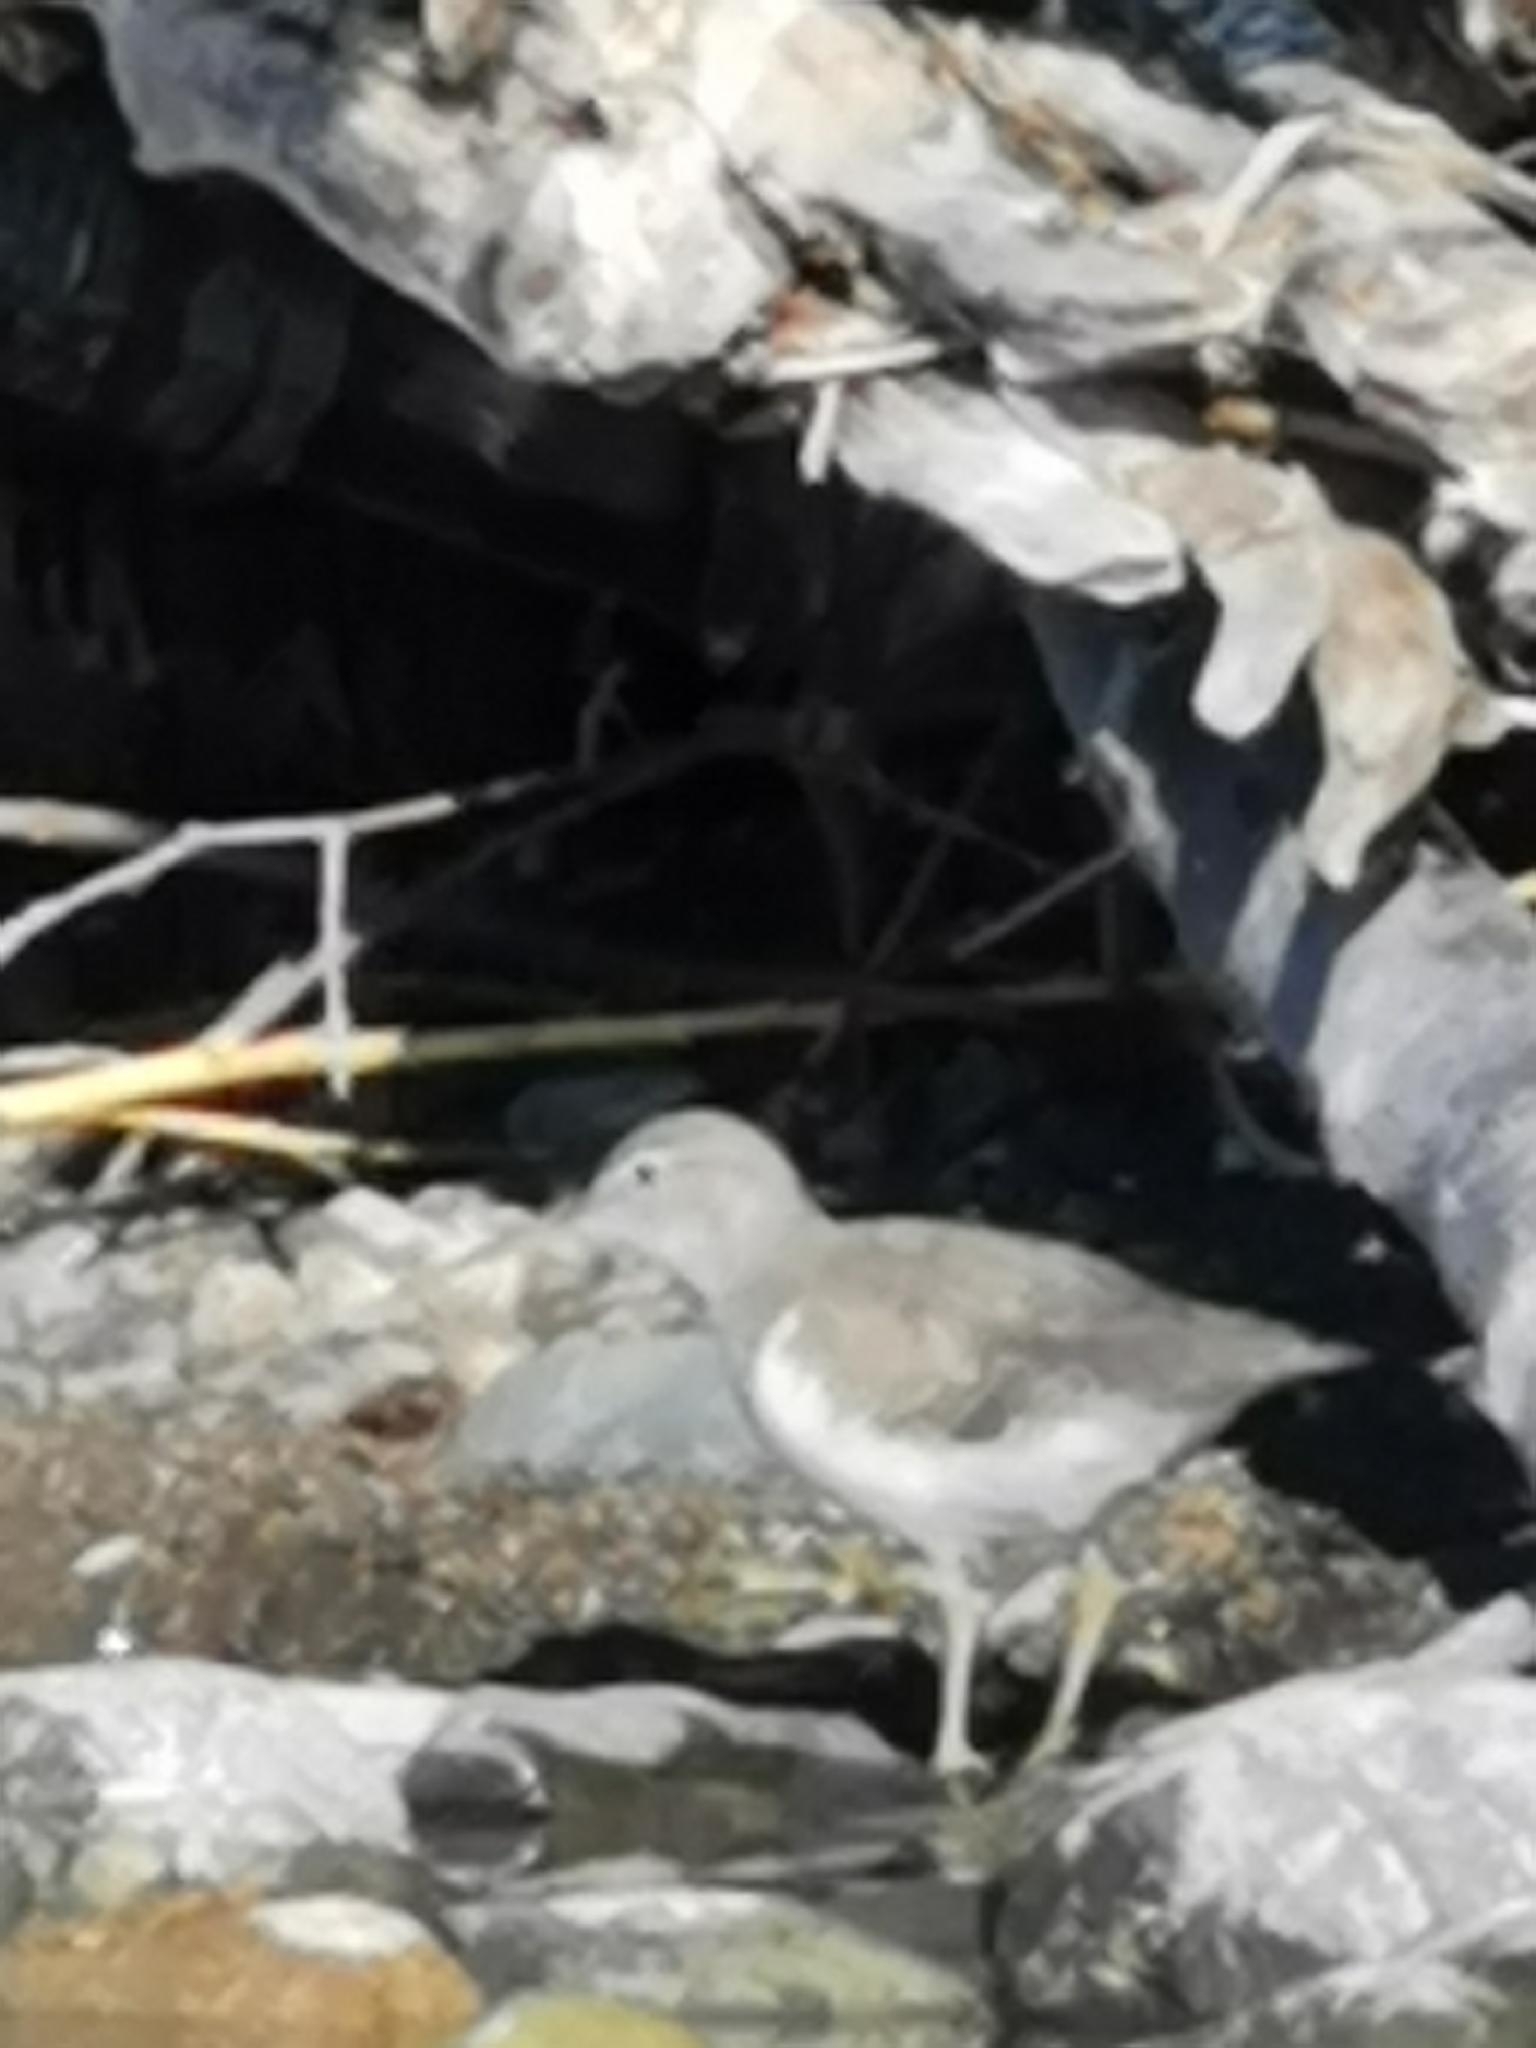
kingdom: Animalia
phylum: Chordata
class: Aves
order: Charadriiformes
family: Scolopacidae
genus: Actitis
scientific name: Actitis macularius
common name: Spotted sandpiper
